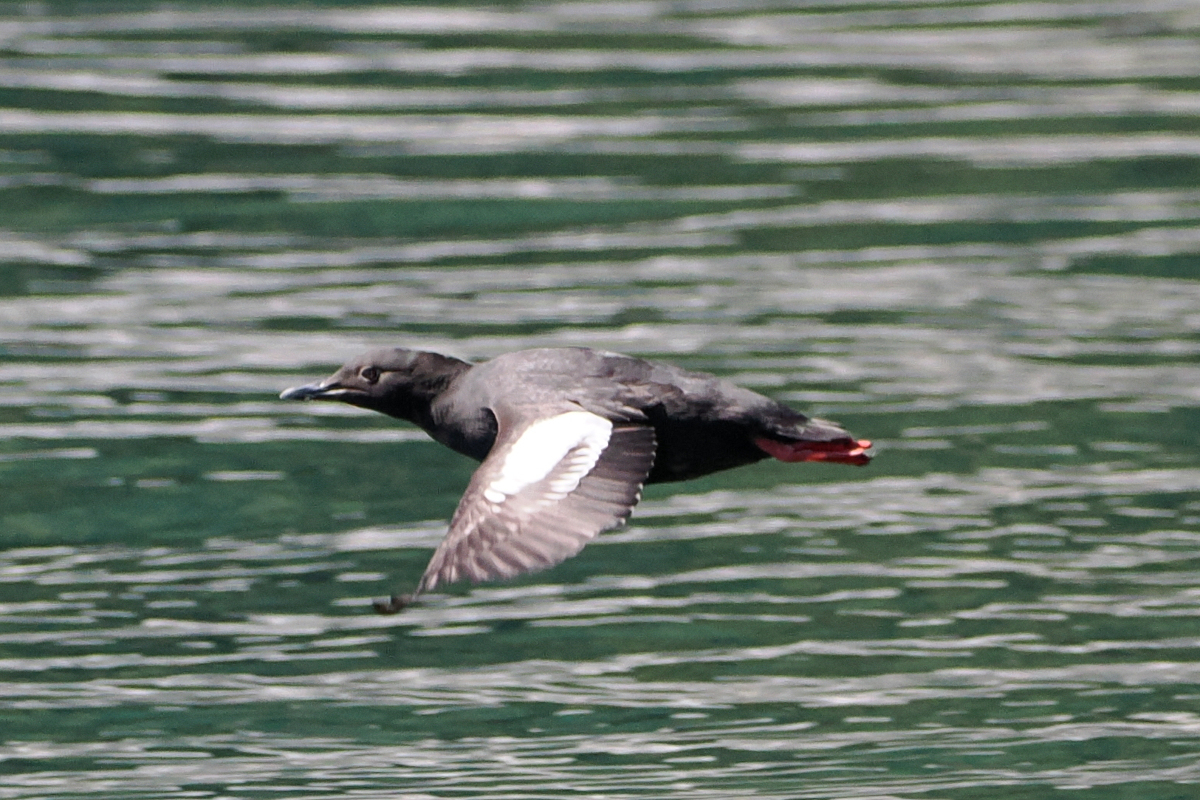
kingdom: Animalia
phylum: Chordata
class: Aves
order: Charadriiformes
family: Alcidae
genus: Cepphus
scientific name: Cepphus columba
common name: Pigeon guillemot
